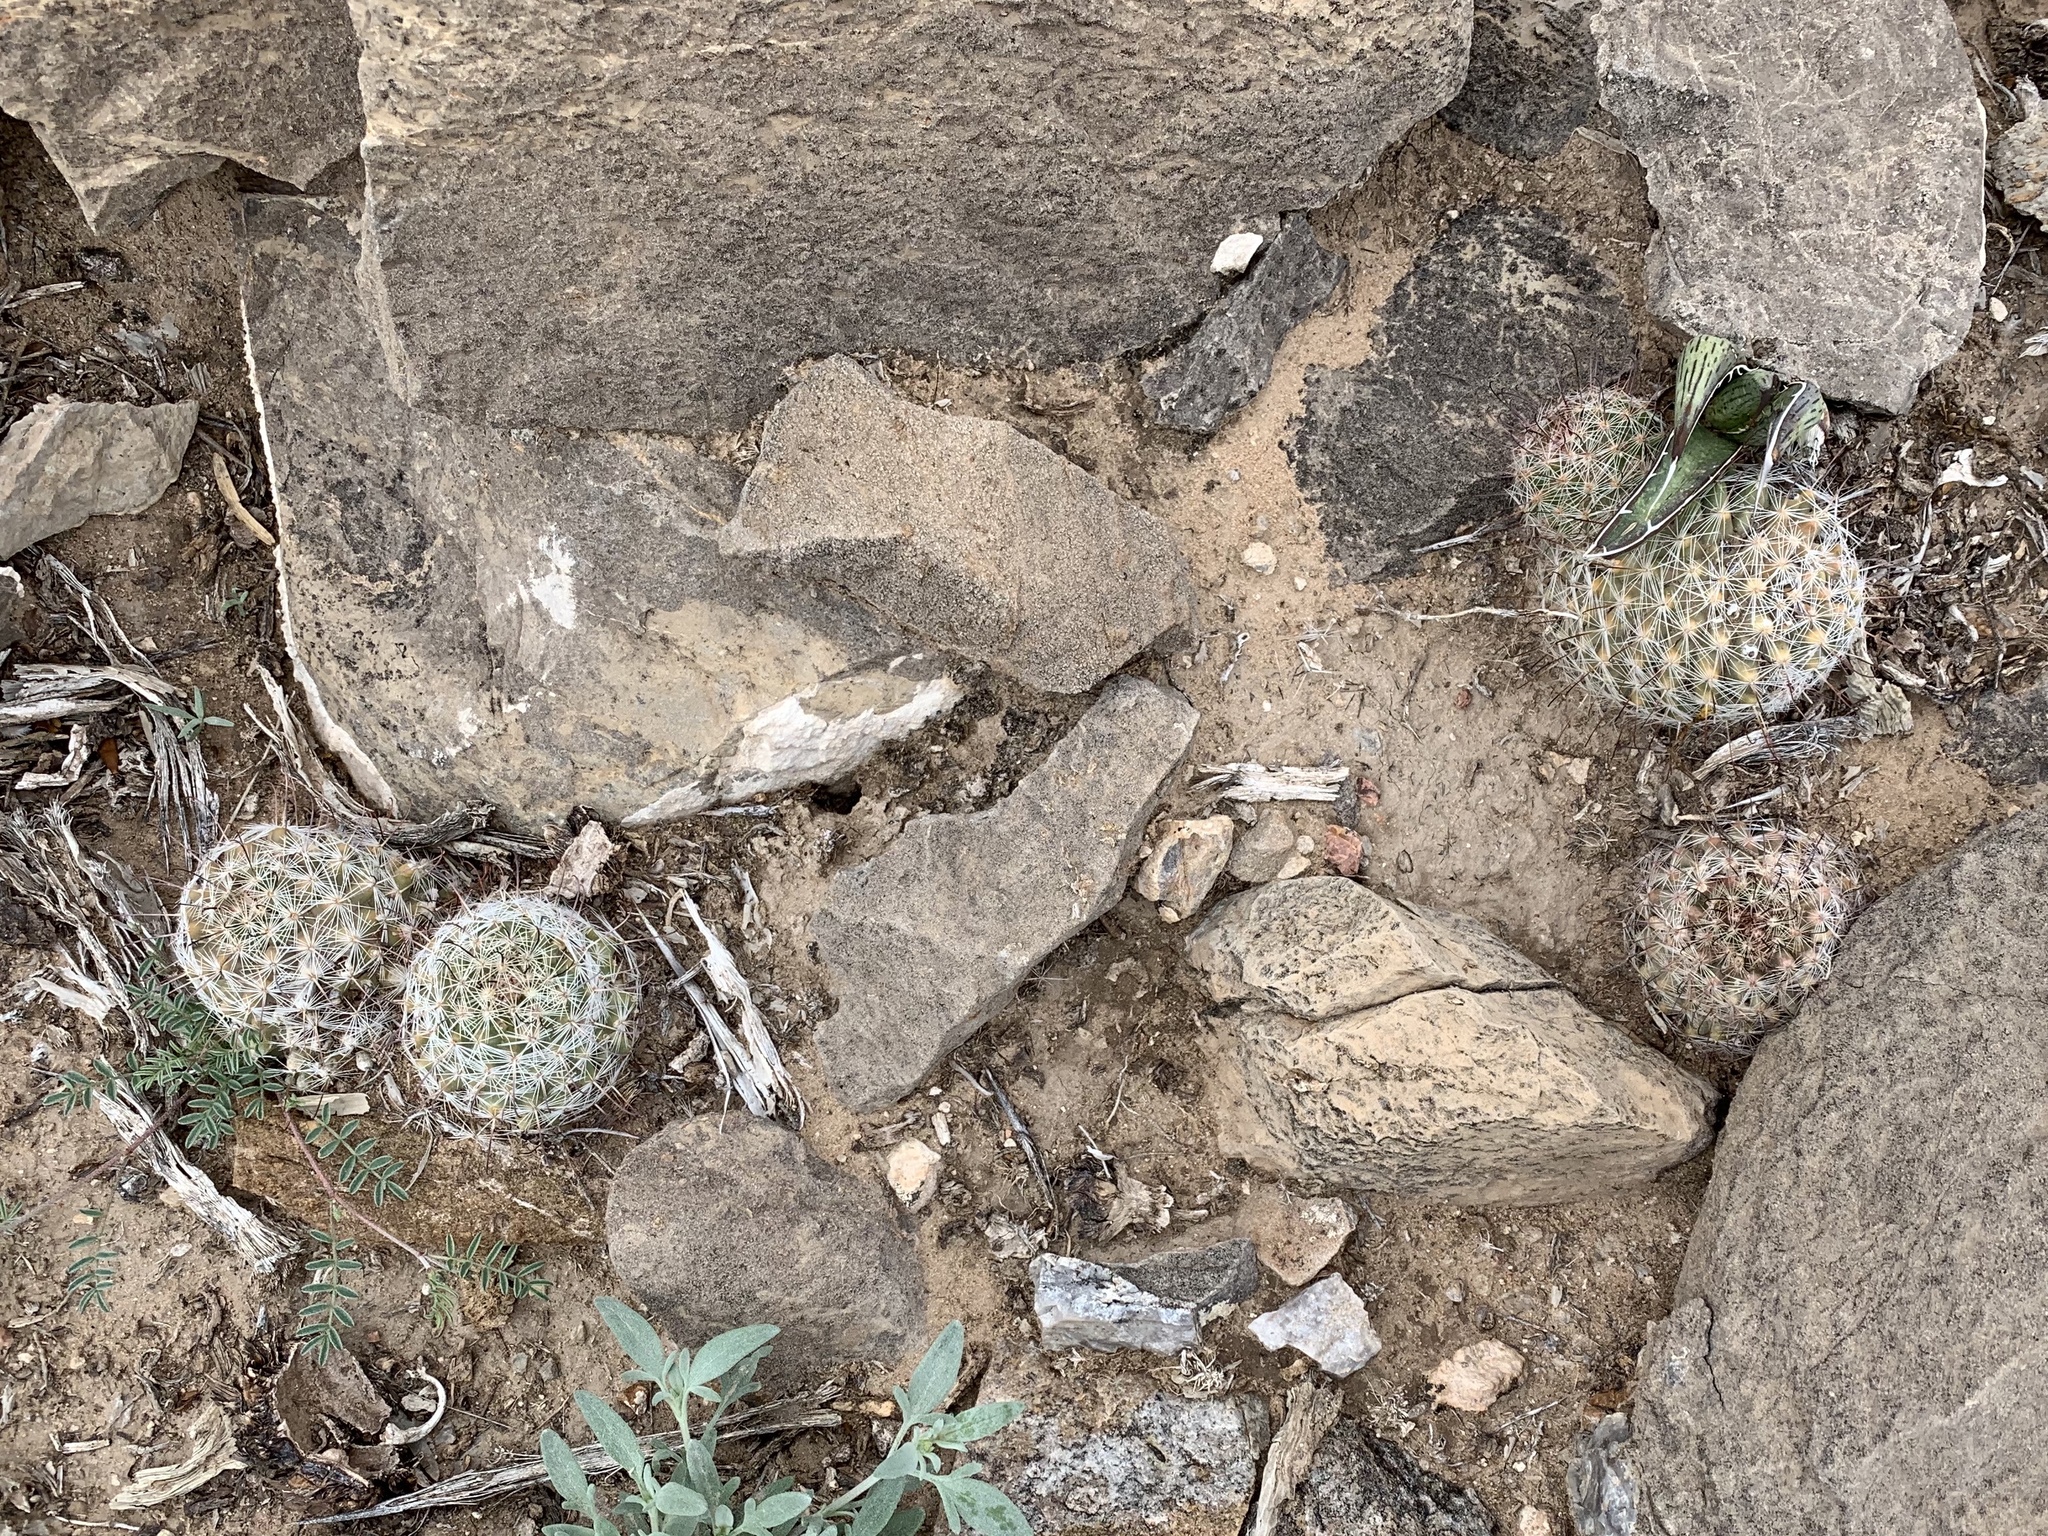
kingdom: Plantae
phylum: Tracheophyta
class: Magnoliopsida
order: Caryophyllales
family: Cactaceae
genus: Cochemiea
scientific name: Cochemiea grahamii
